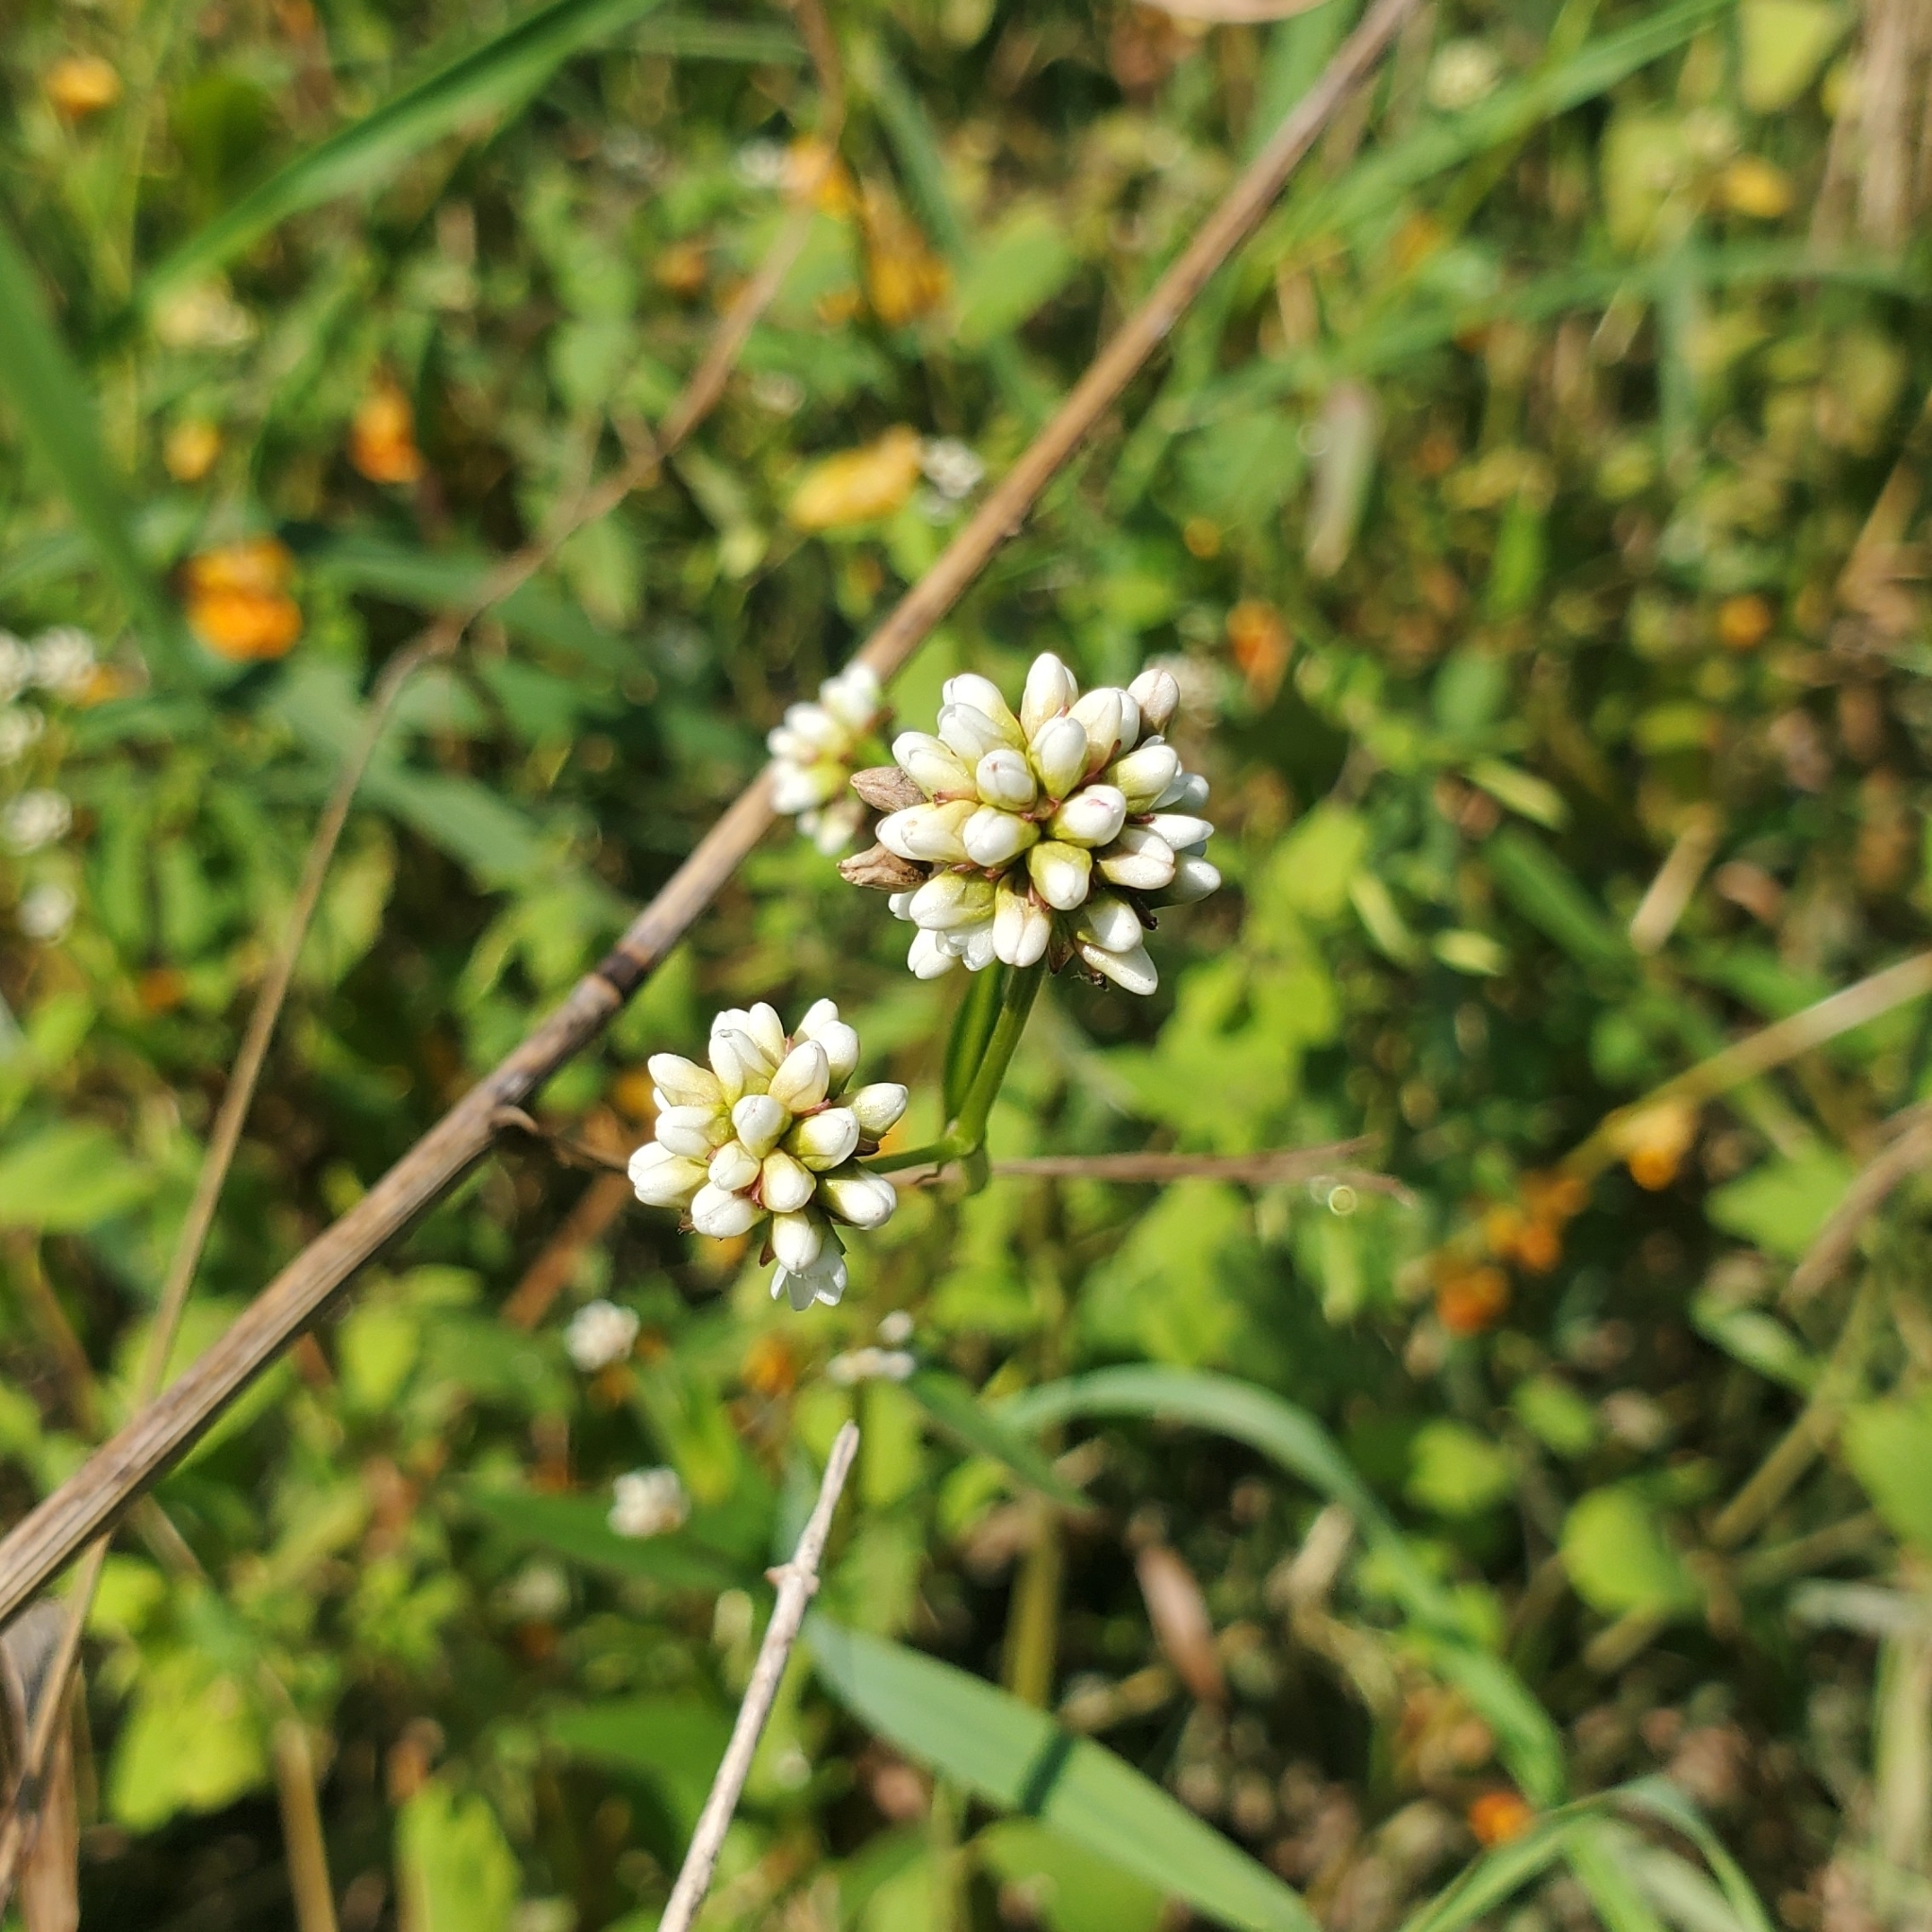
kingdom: Plantae
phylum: Tracheophyta
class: Magnoliopsida
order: Caryophyllales
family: Polygonaceae
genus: Persicaria
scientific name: Persicaria sagittata
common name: American tearthumb
